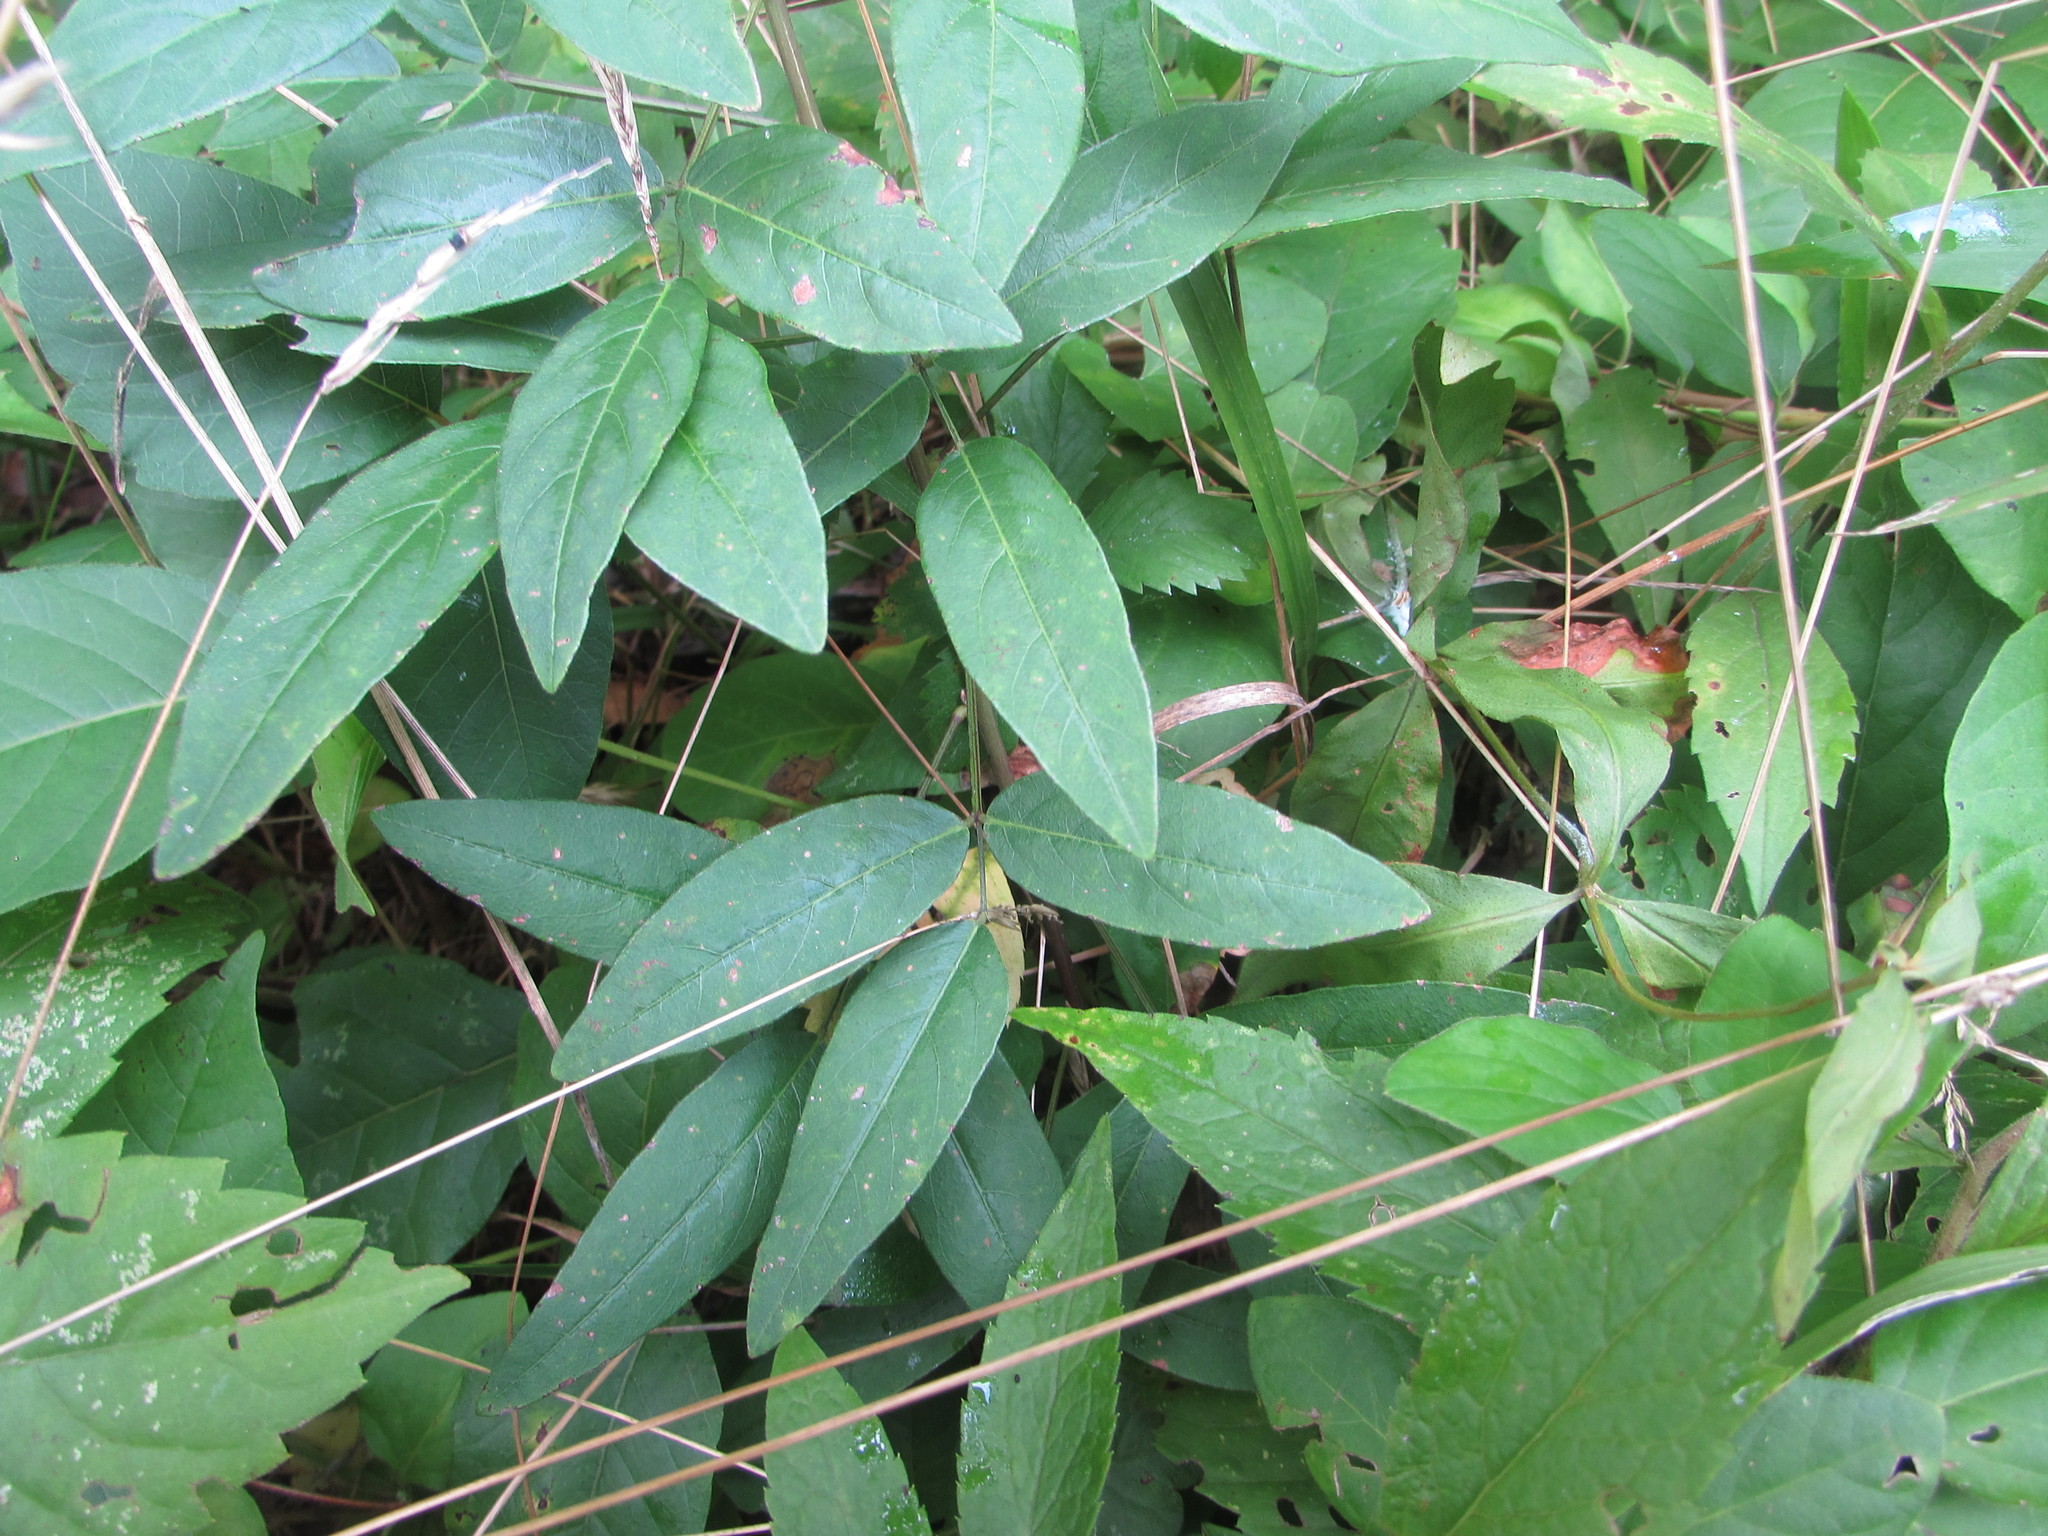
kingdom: Plantae
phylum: Tracheophyta
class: Magnoliopsida
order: Fabales
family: Fabaceae
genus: Desmodium
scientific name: Desmodium paniculatum
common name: Panicled tick-clover
